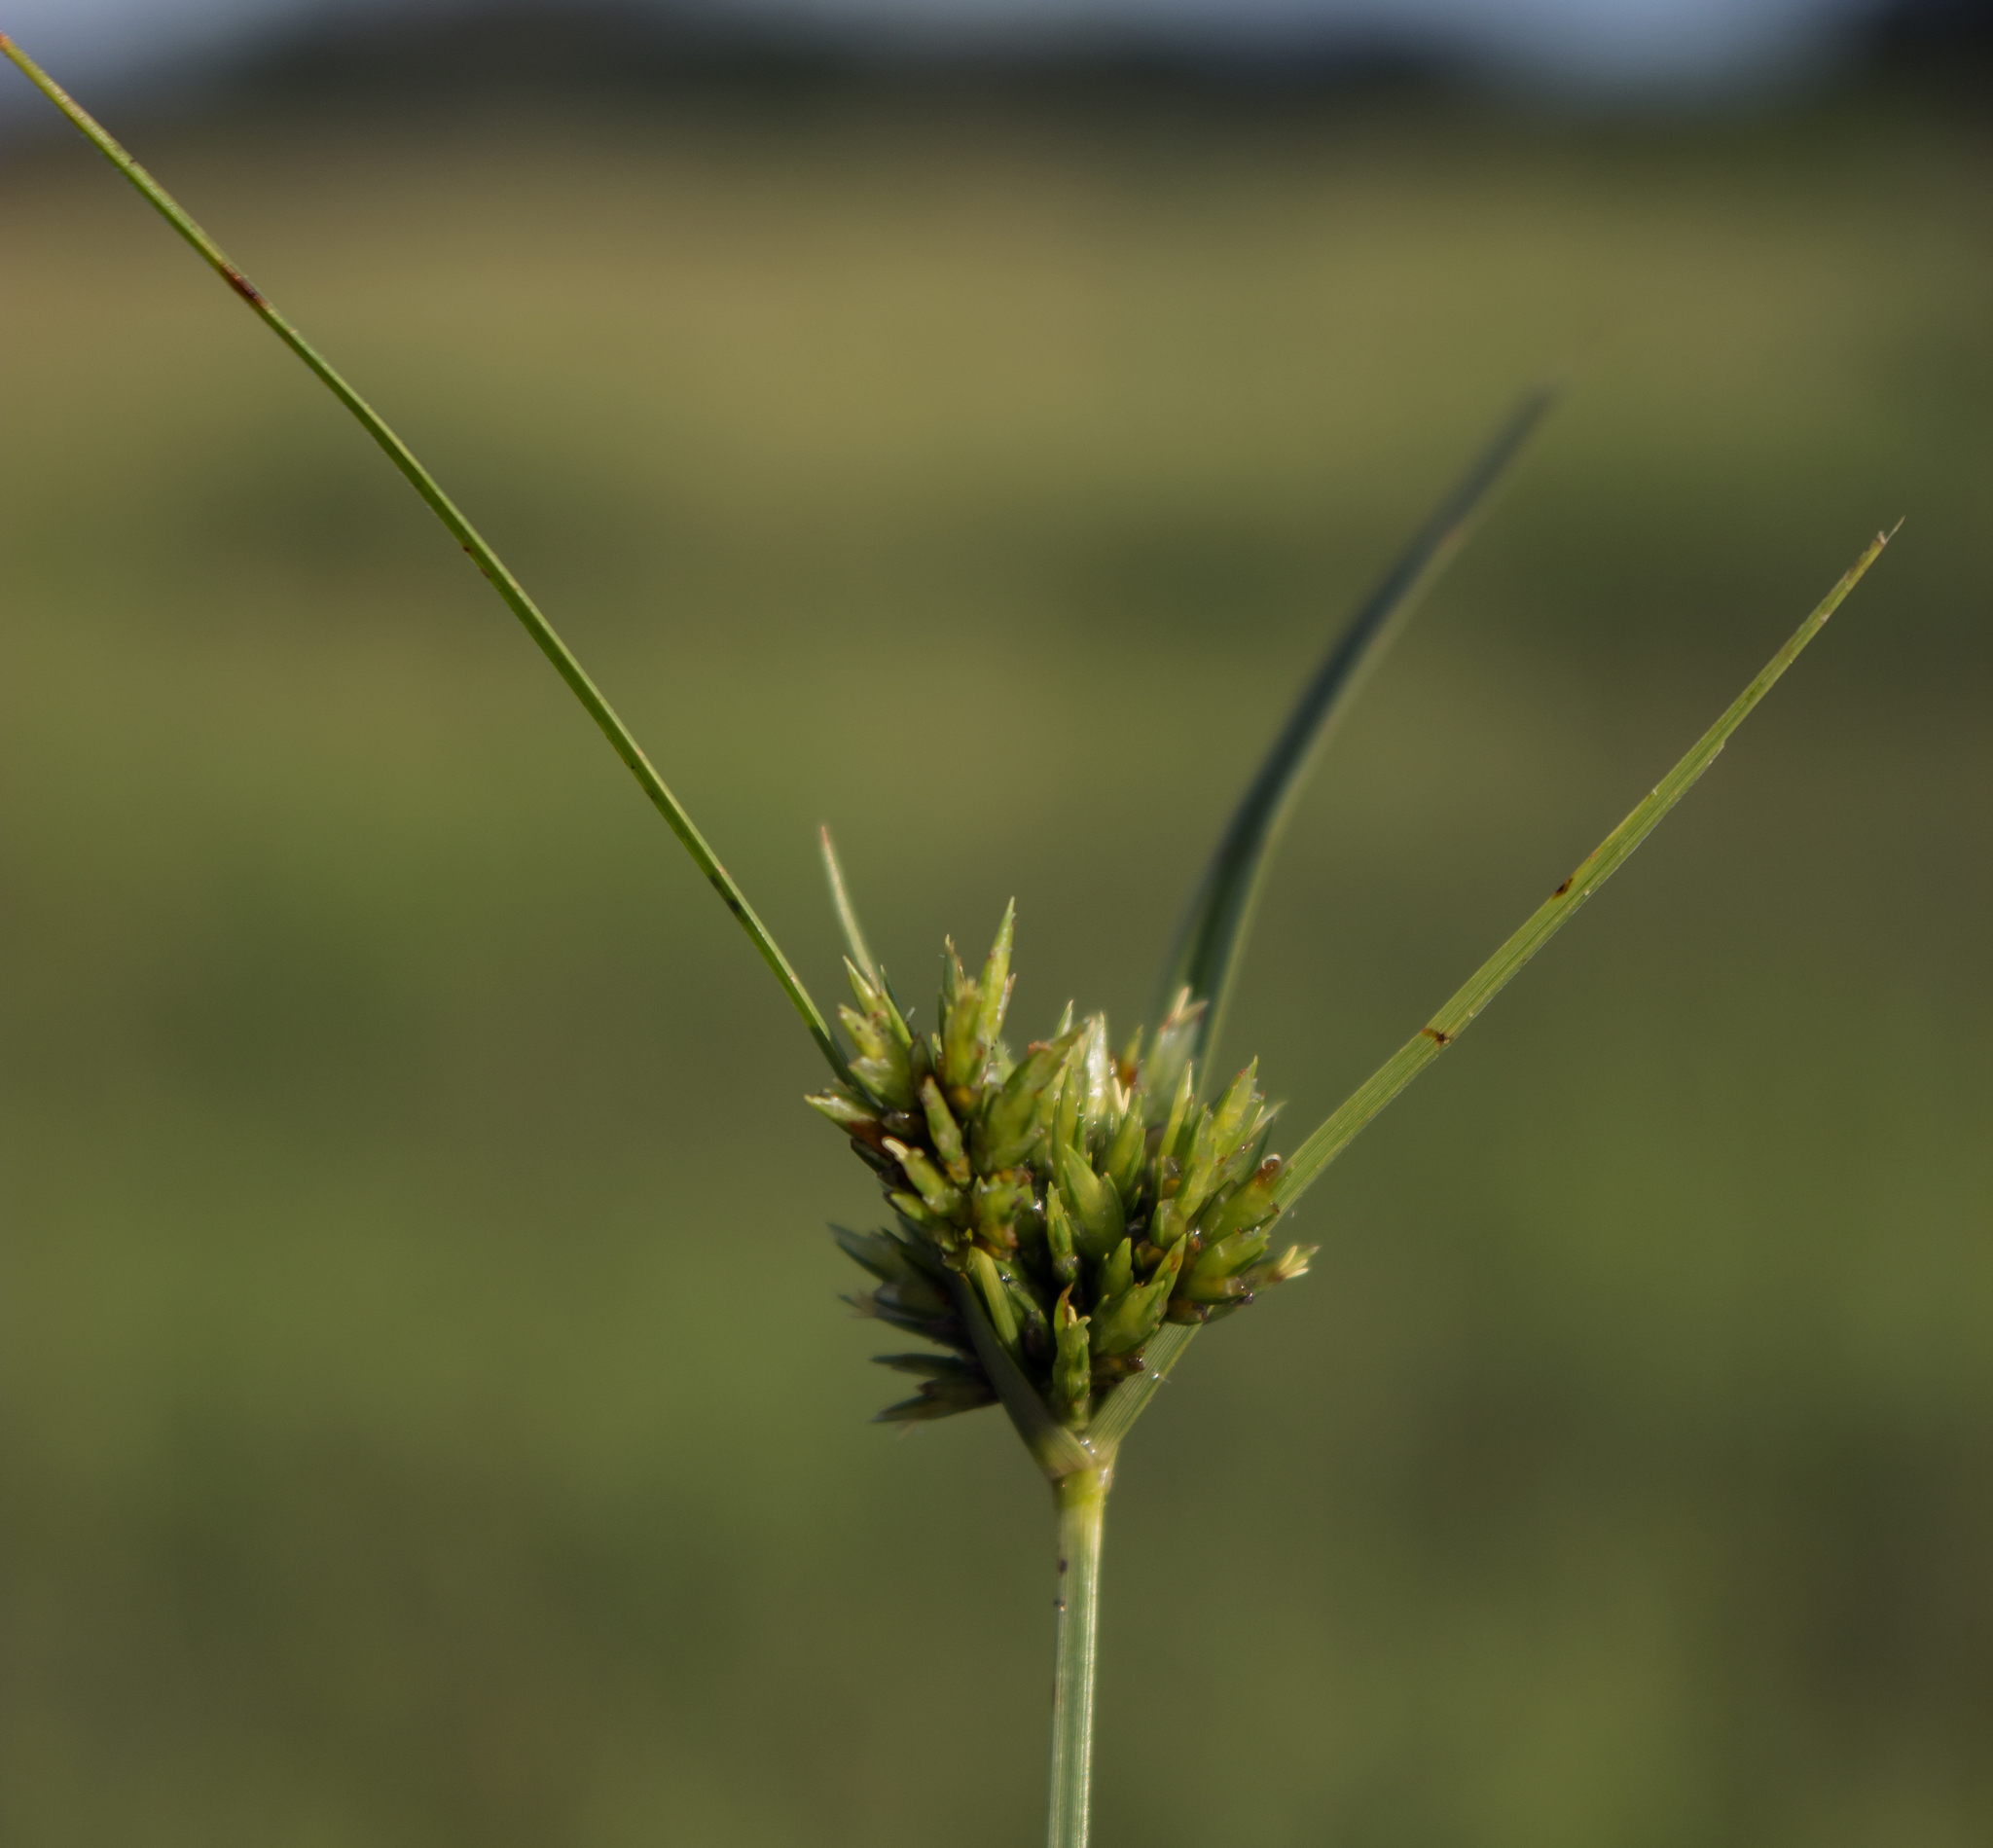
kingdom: Plantae
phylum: Tracheophyta
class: Liliopsida
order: Poales
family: Cyperaceae
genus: Cyperus
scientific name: Cyperus lupulinus
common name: Great plains flatsedge
